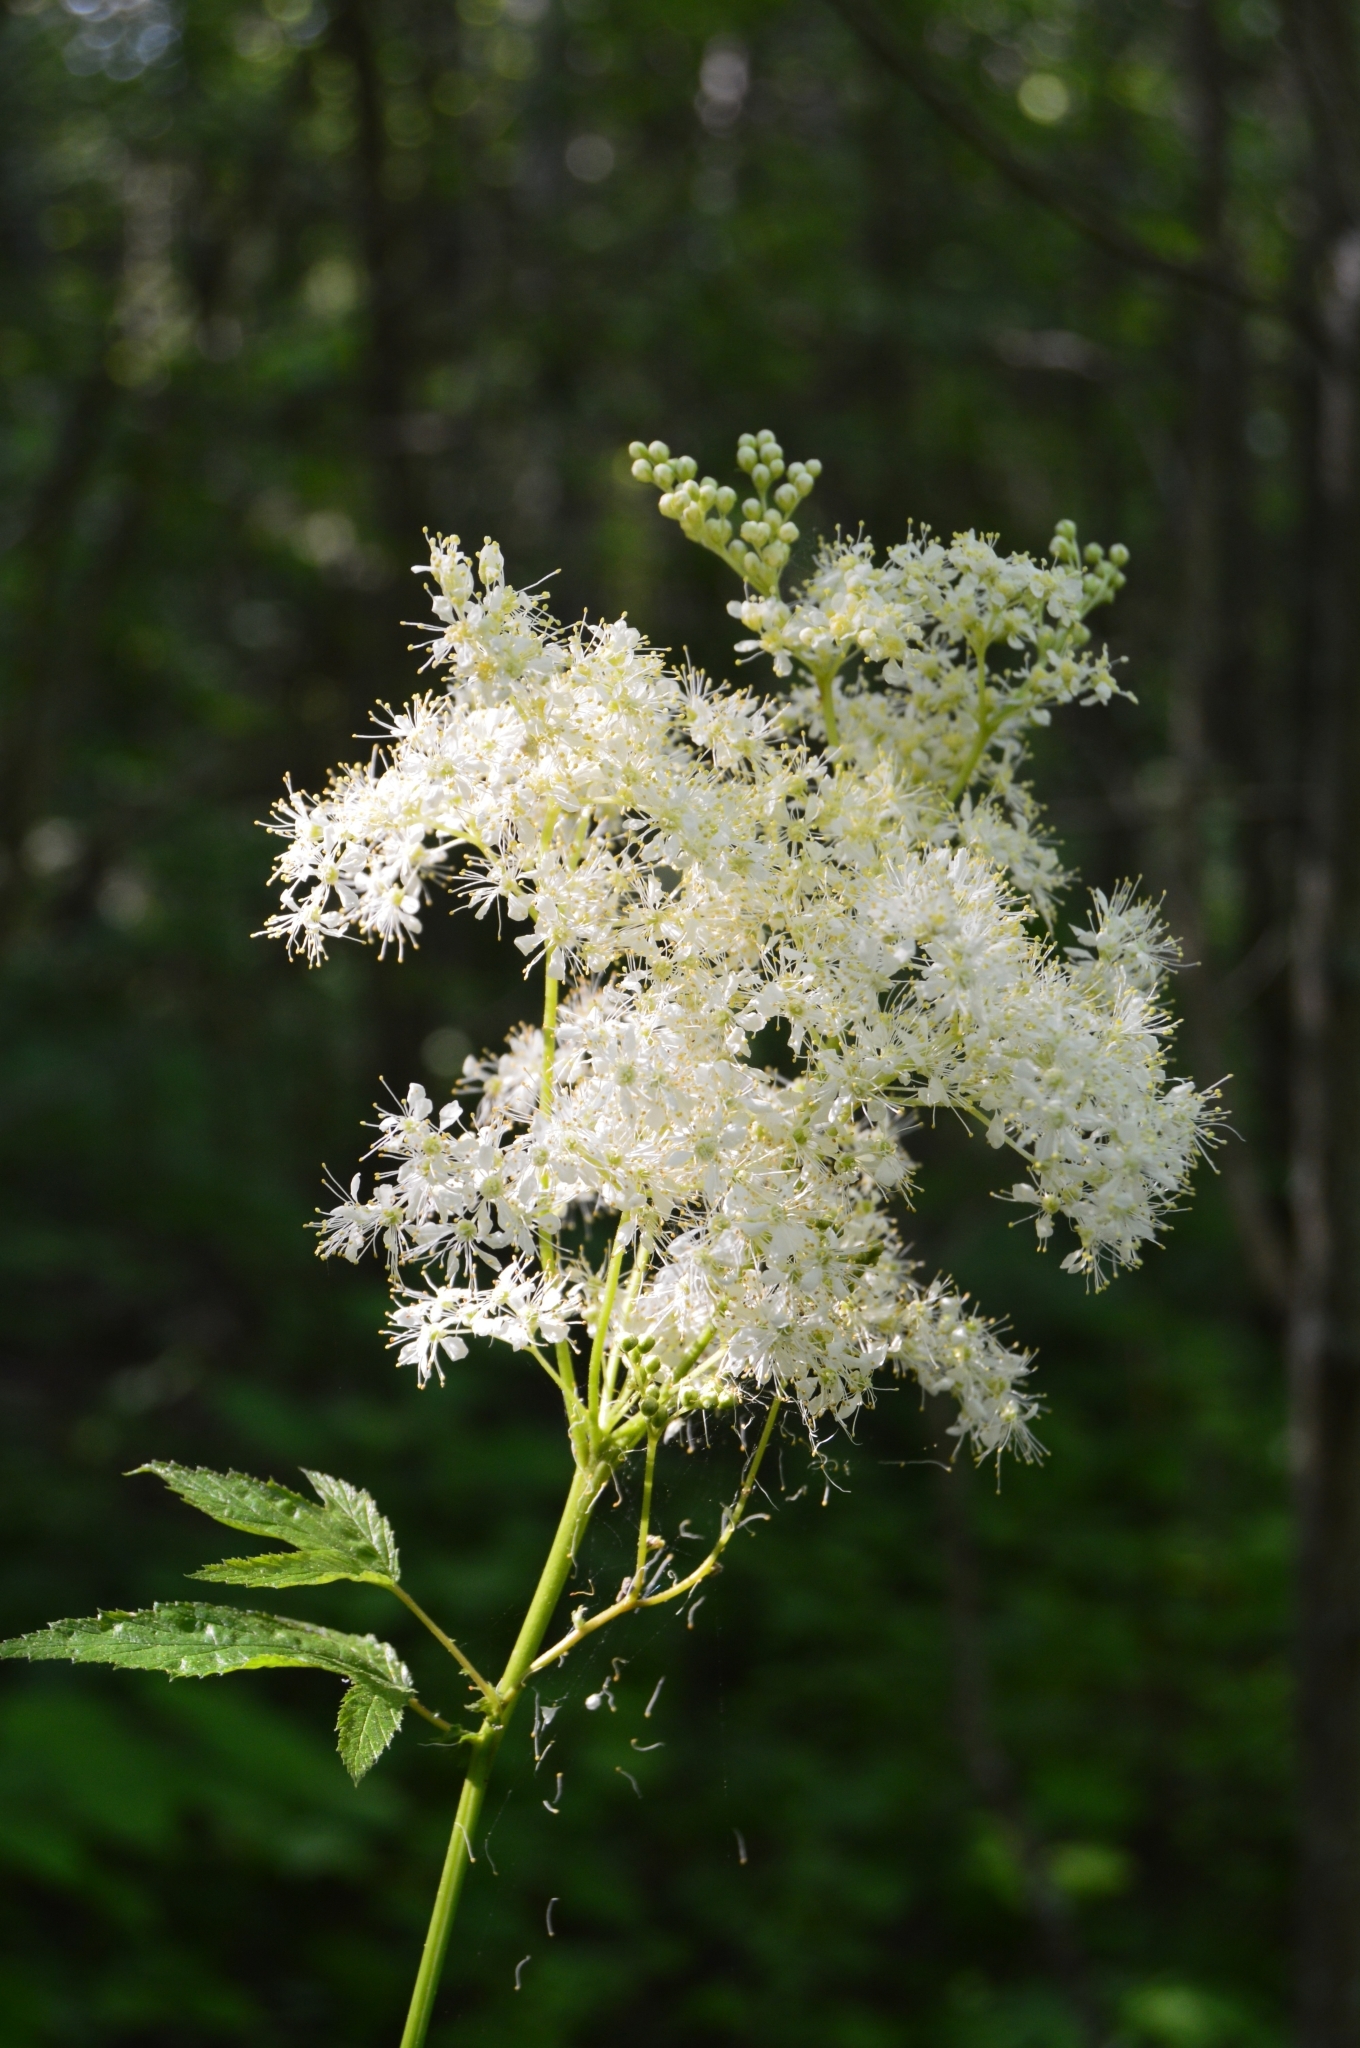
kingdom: Plantae
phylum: Tracheophyta
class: Magnoliopsida
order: Rosales
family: Rosaceae
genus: Filipendula
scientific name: Filipendula ulmaria
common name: Meadowsweet
